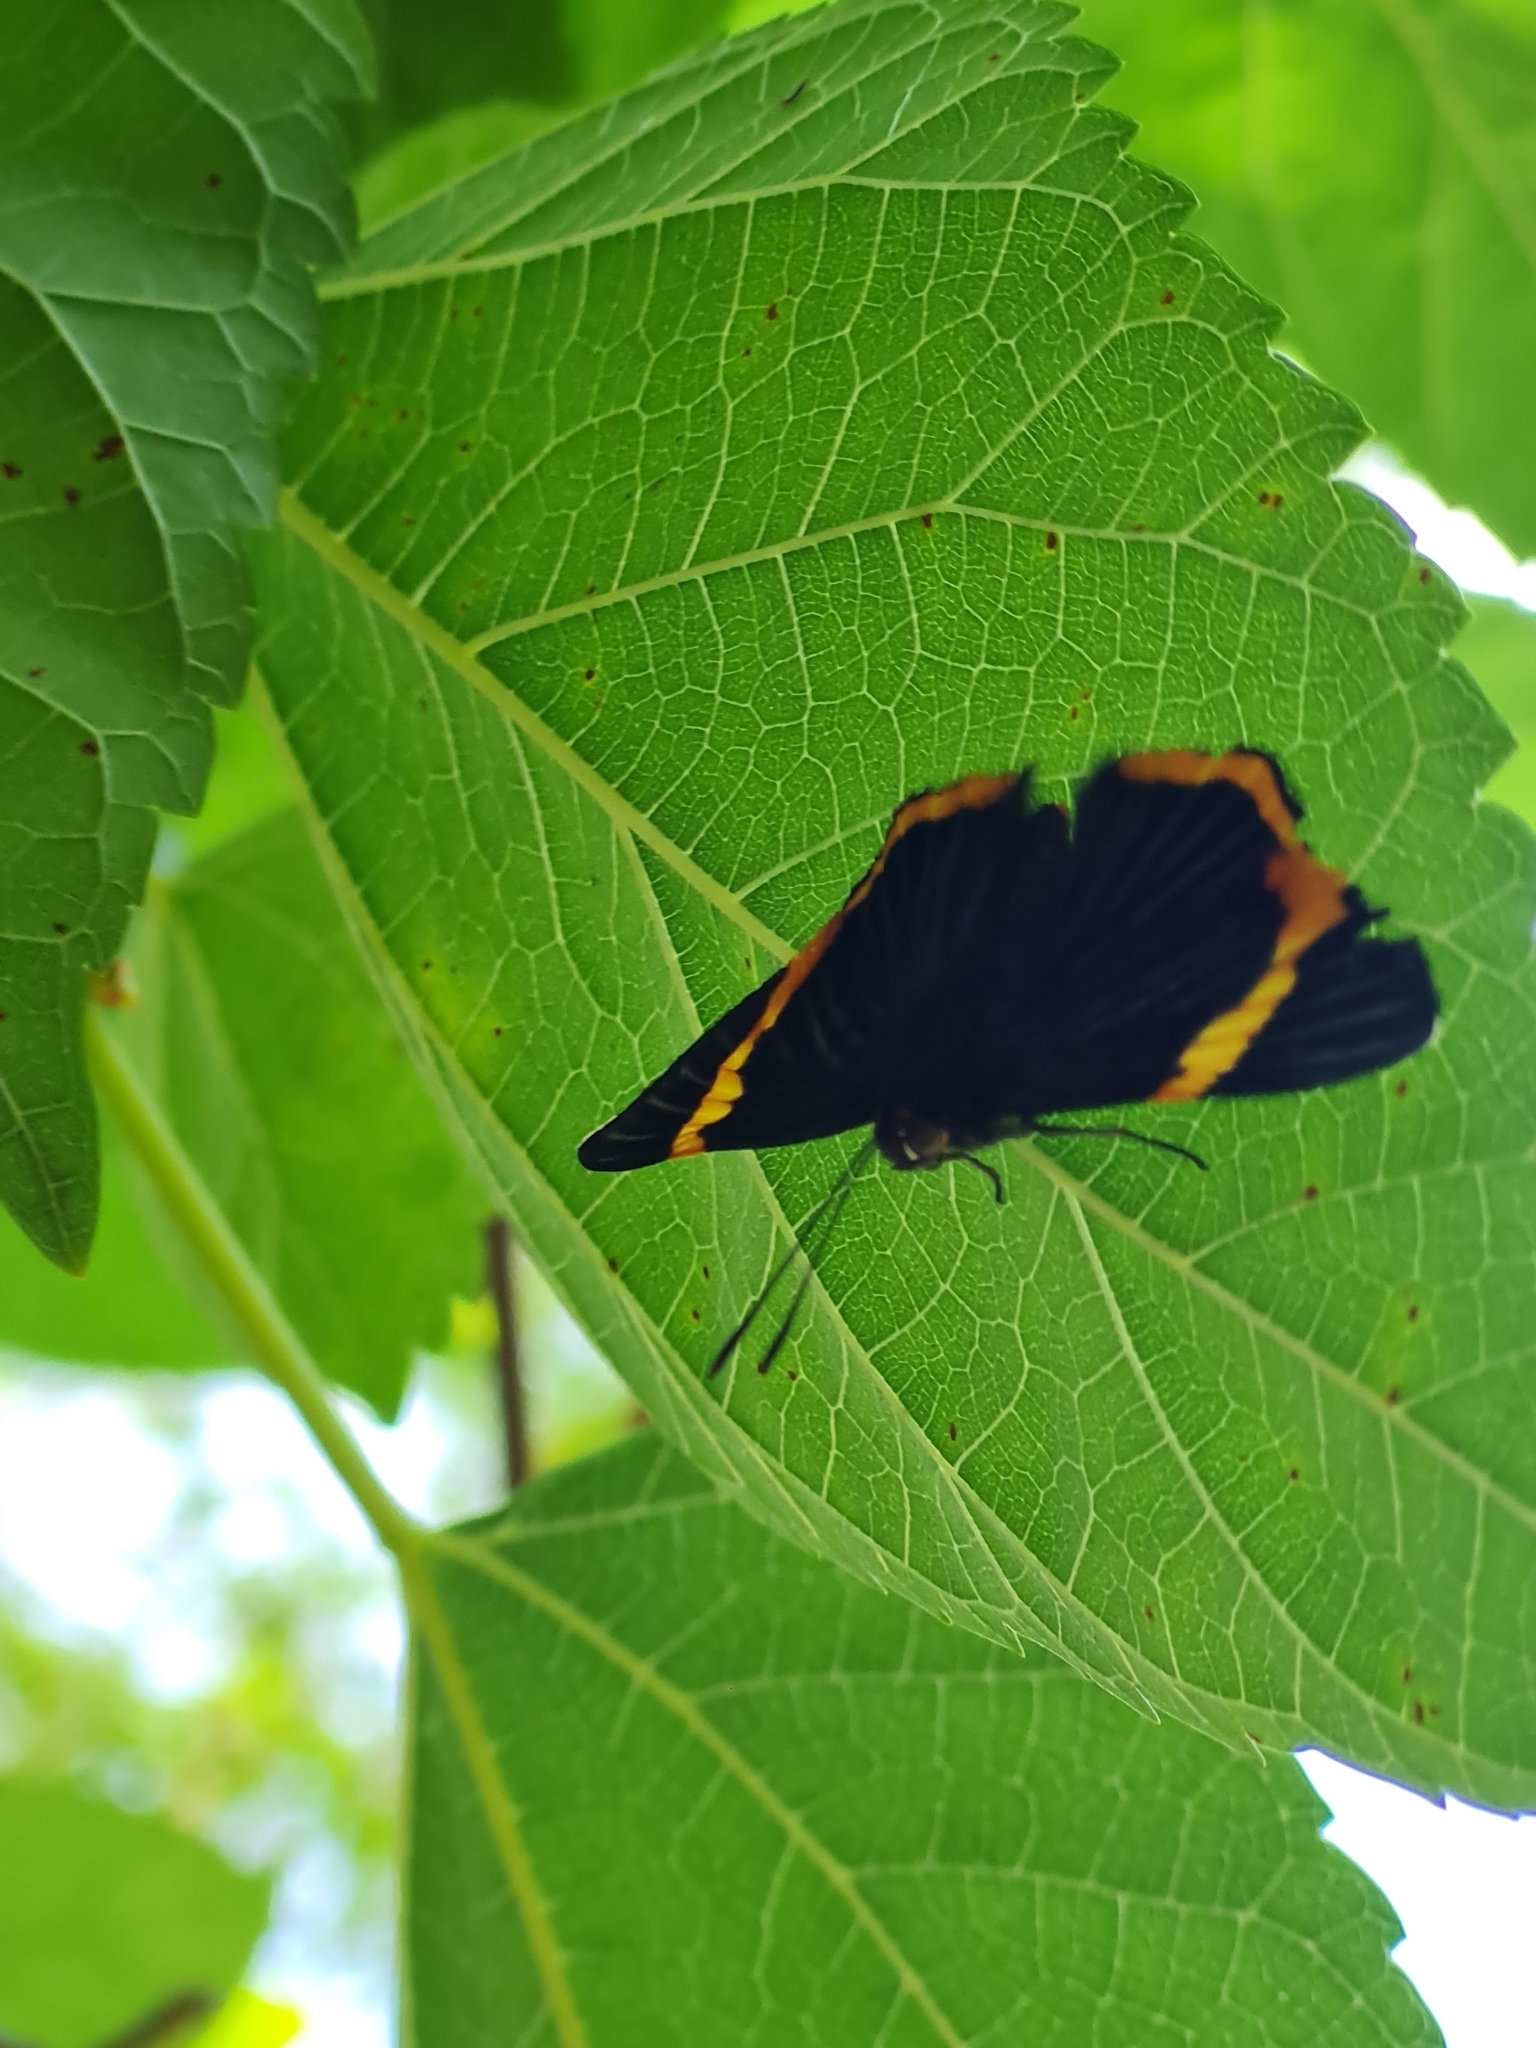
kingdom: Animalia
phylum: Arthropoda
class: Insecta
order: Lepidoptera
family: Riodinidae
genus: Riodina
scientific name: Riodina lycisca
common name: Lycisca metalmark
